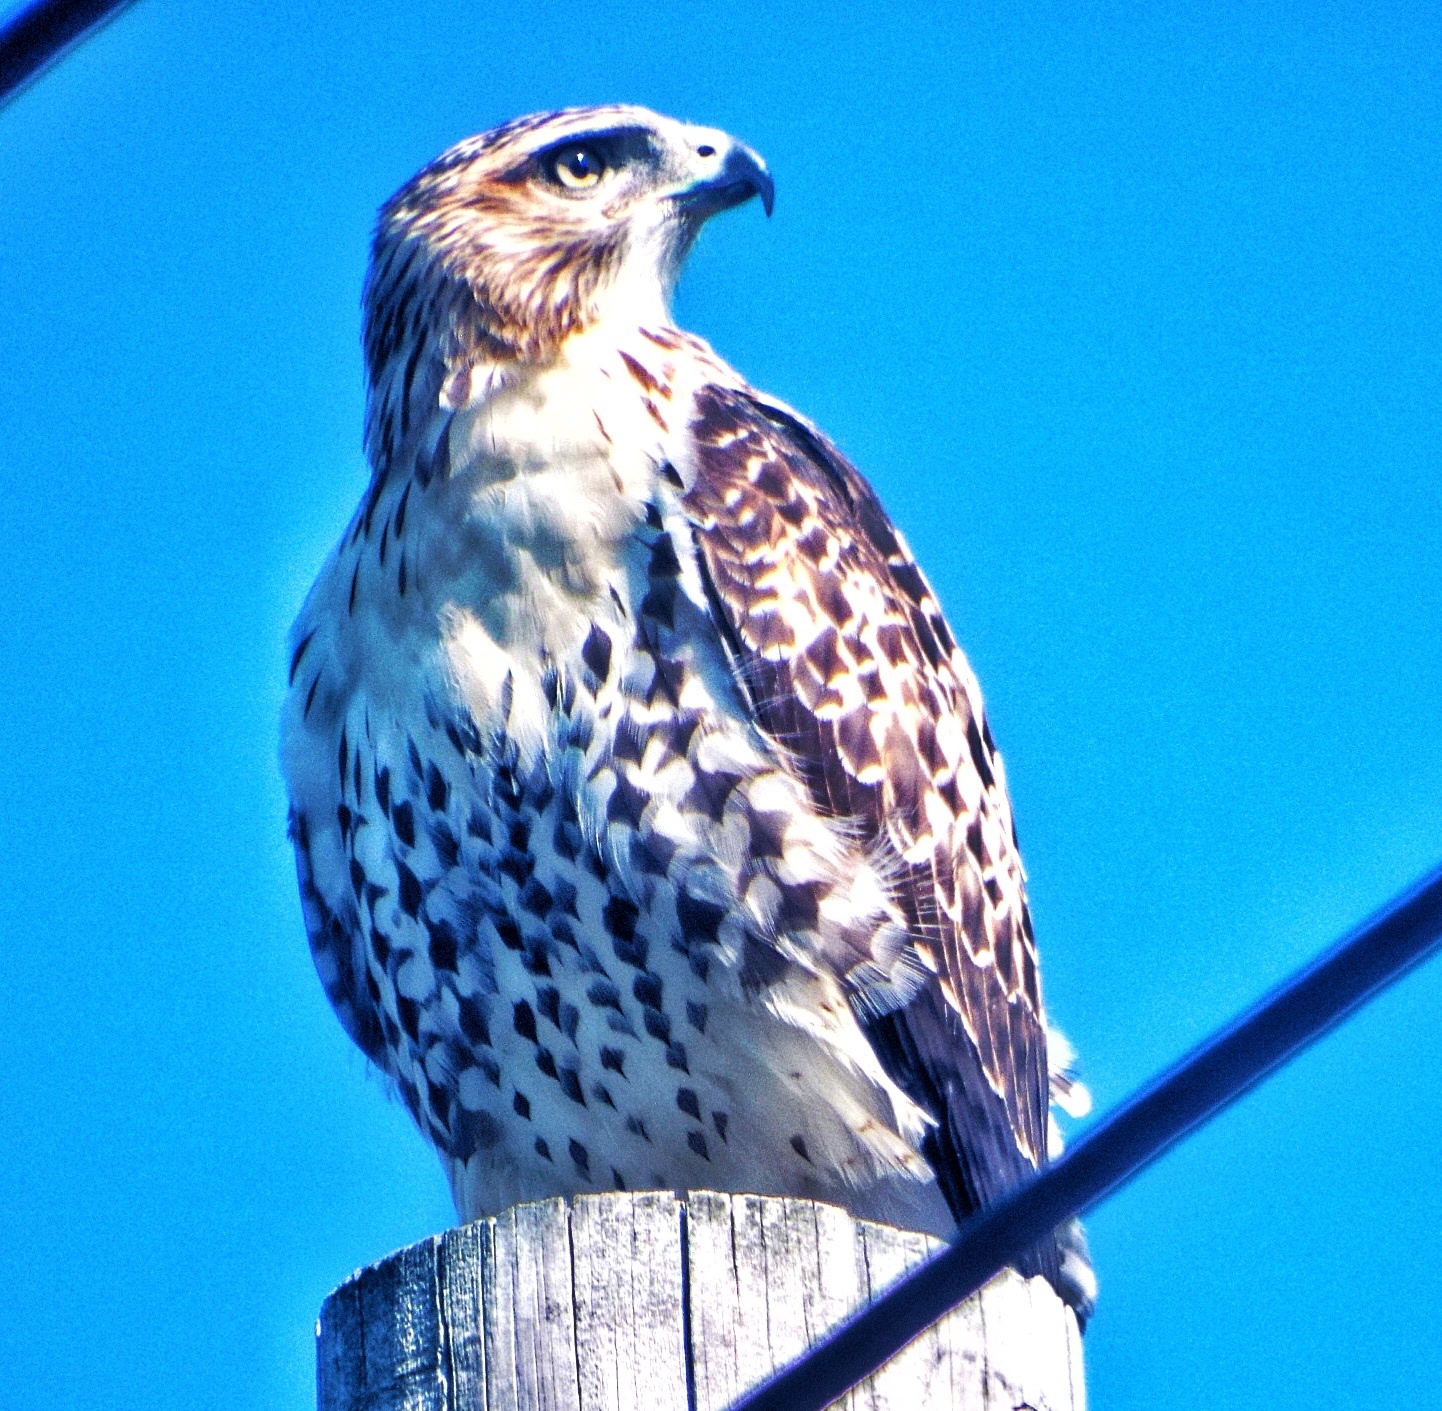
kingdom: Animalia
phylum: Chordata
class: Aves
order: Accipitriformes
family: Accipitridae
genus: Buteo
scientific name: Buteo jamaicensis
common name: Red-tailed hawk
